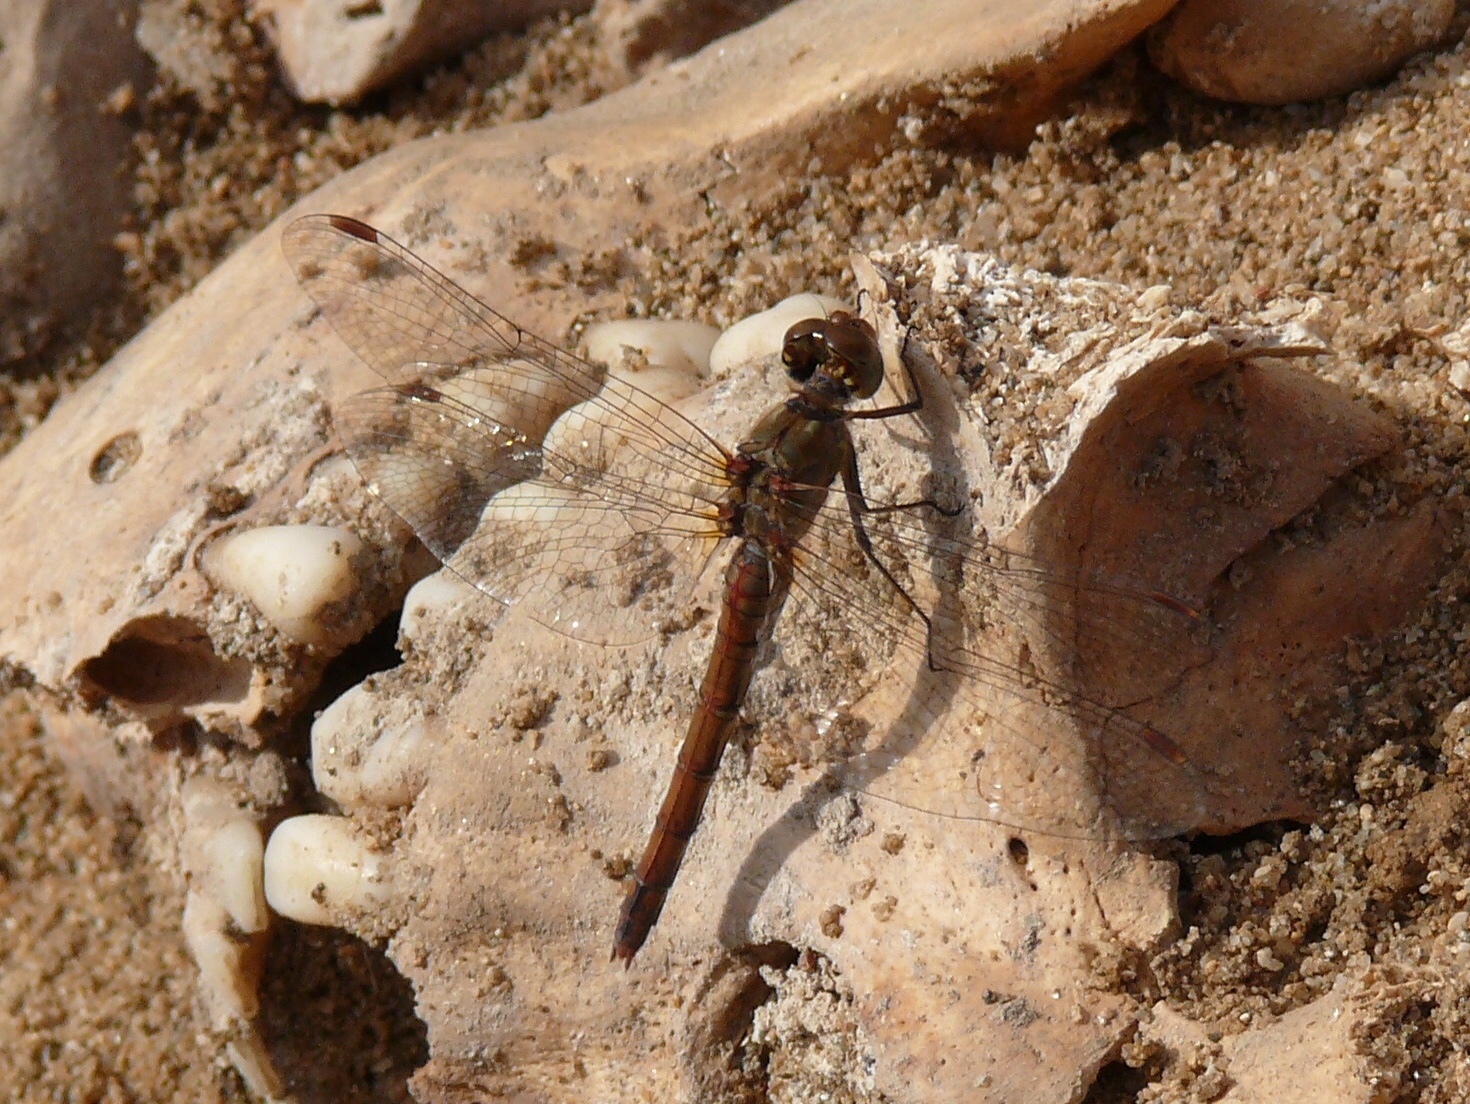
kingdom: Animalia
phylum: Arthropoda
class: Insecta
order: Odonata
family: Libellulidae
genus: Sympetrum
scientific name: Sympetrum striolatum
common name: Common darter
